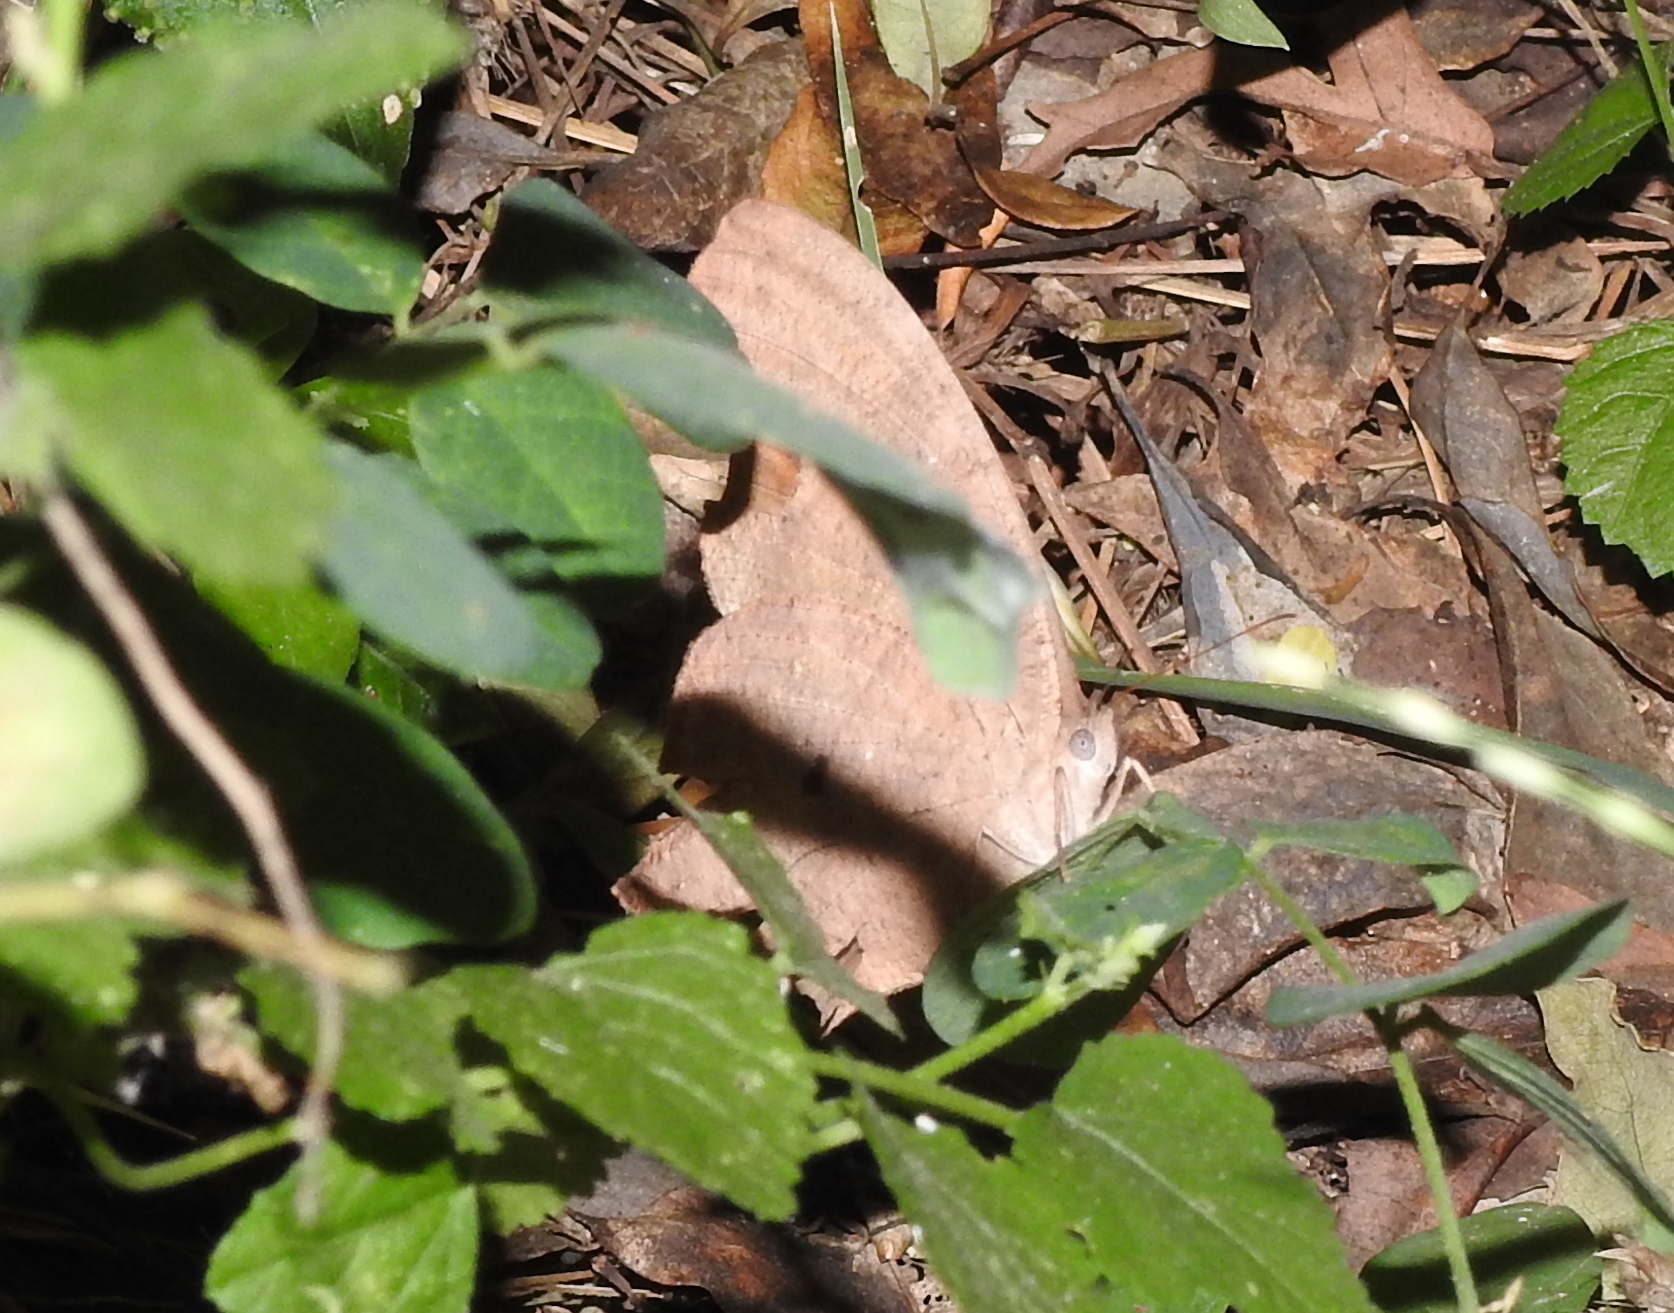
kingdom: Animalia
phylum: Arthropoda
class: Insecta
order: Lepidoptera
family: Nymphalidae
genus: Melanitis
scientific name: Melanitis leda
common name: Twilight brown
